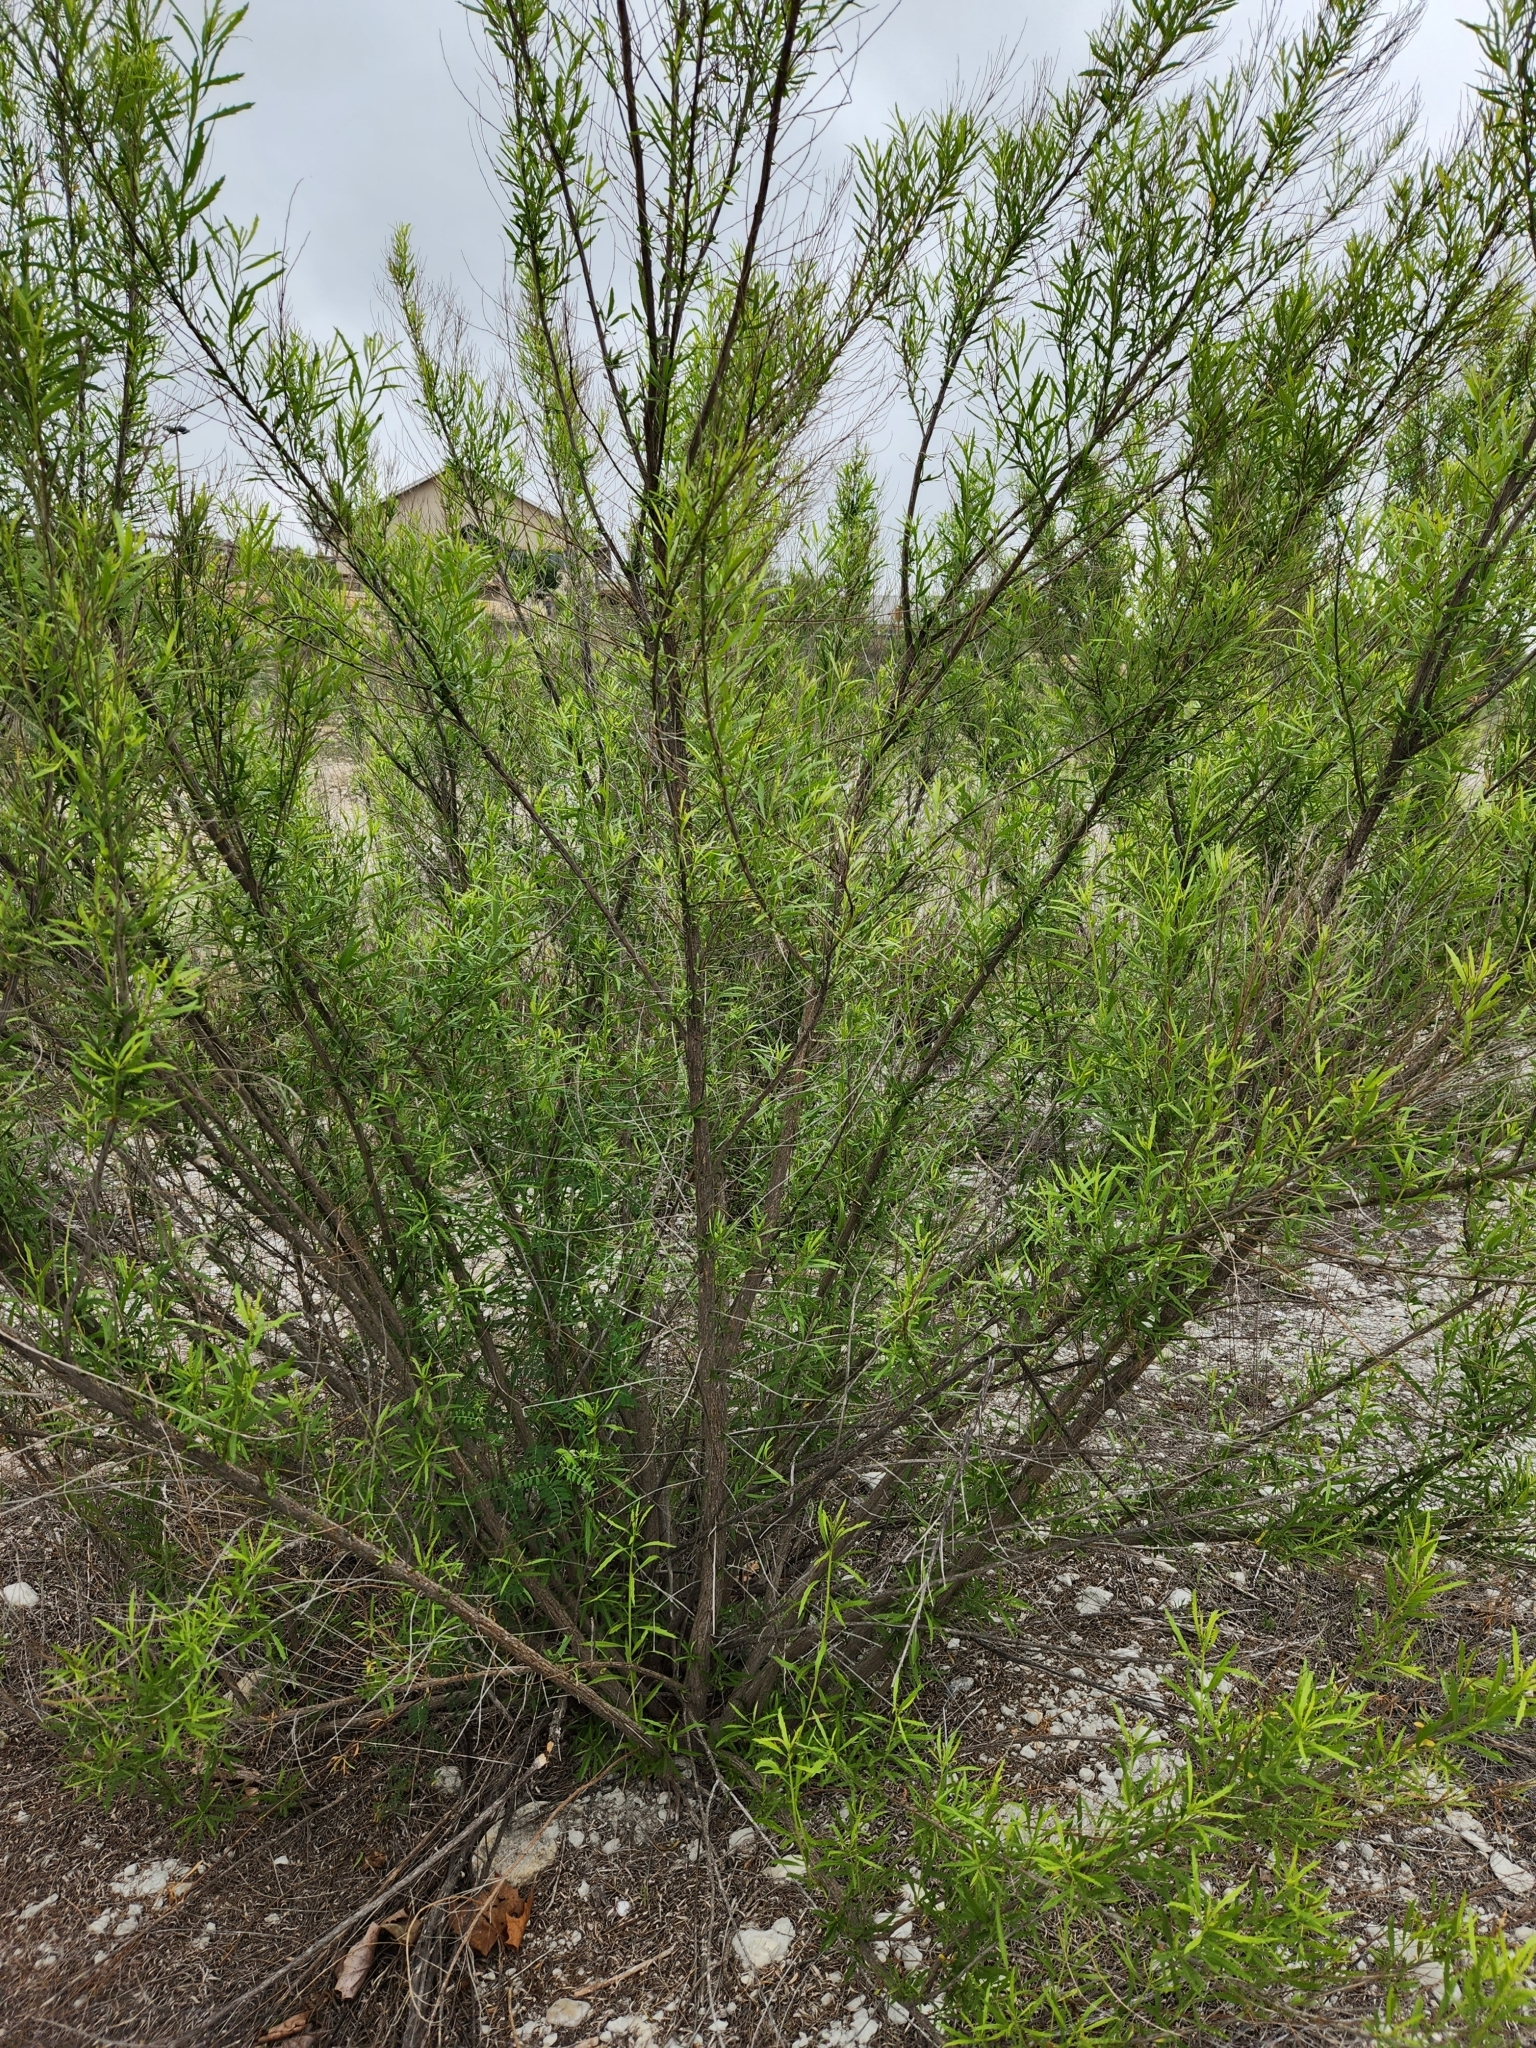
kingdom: Plantae
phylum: Tracheophyta
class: Magnoliopsida
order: Asterales
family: Asteraceae
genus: Baccharis
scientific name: Baccharis neglecta
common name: Roosevelt-weed
